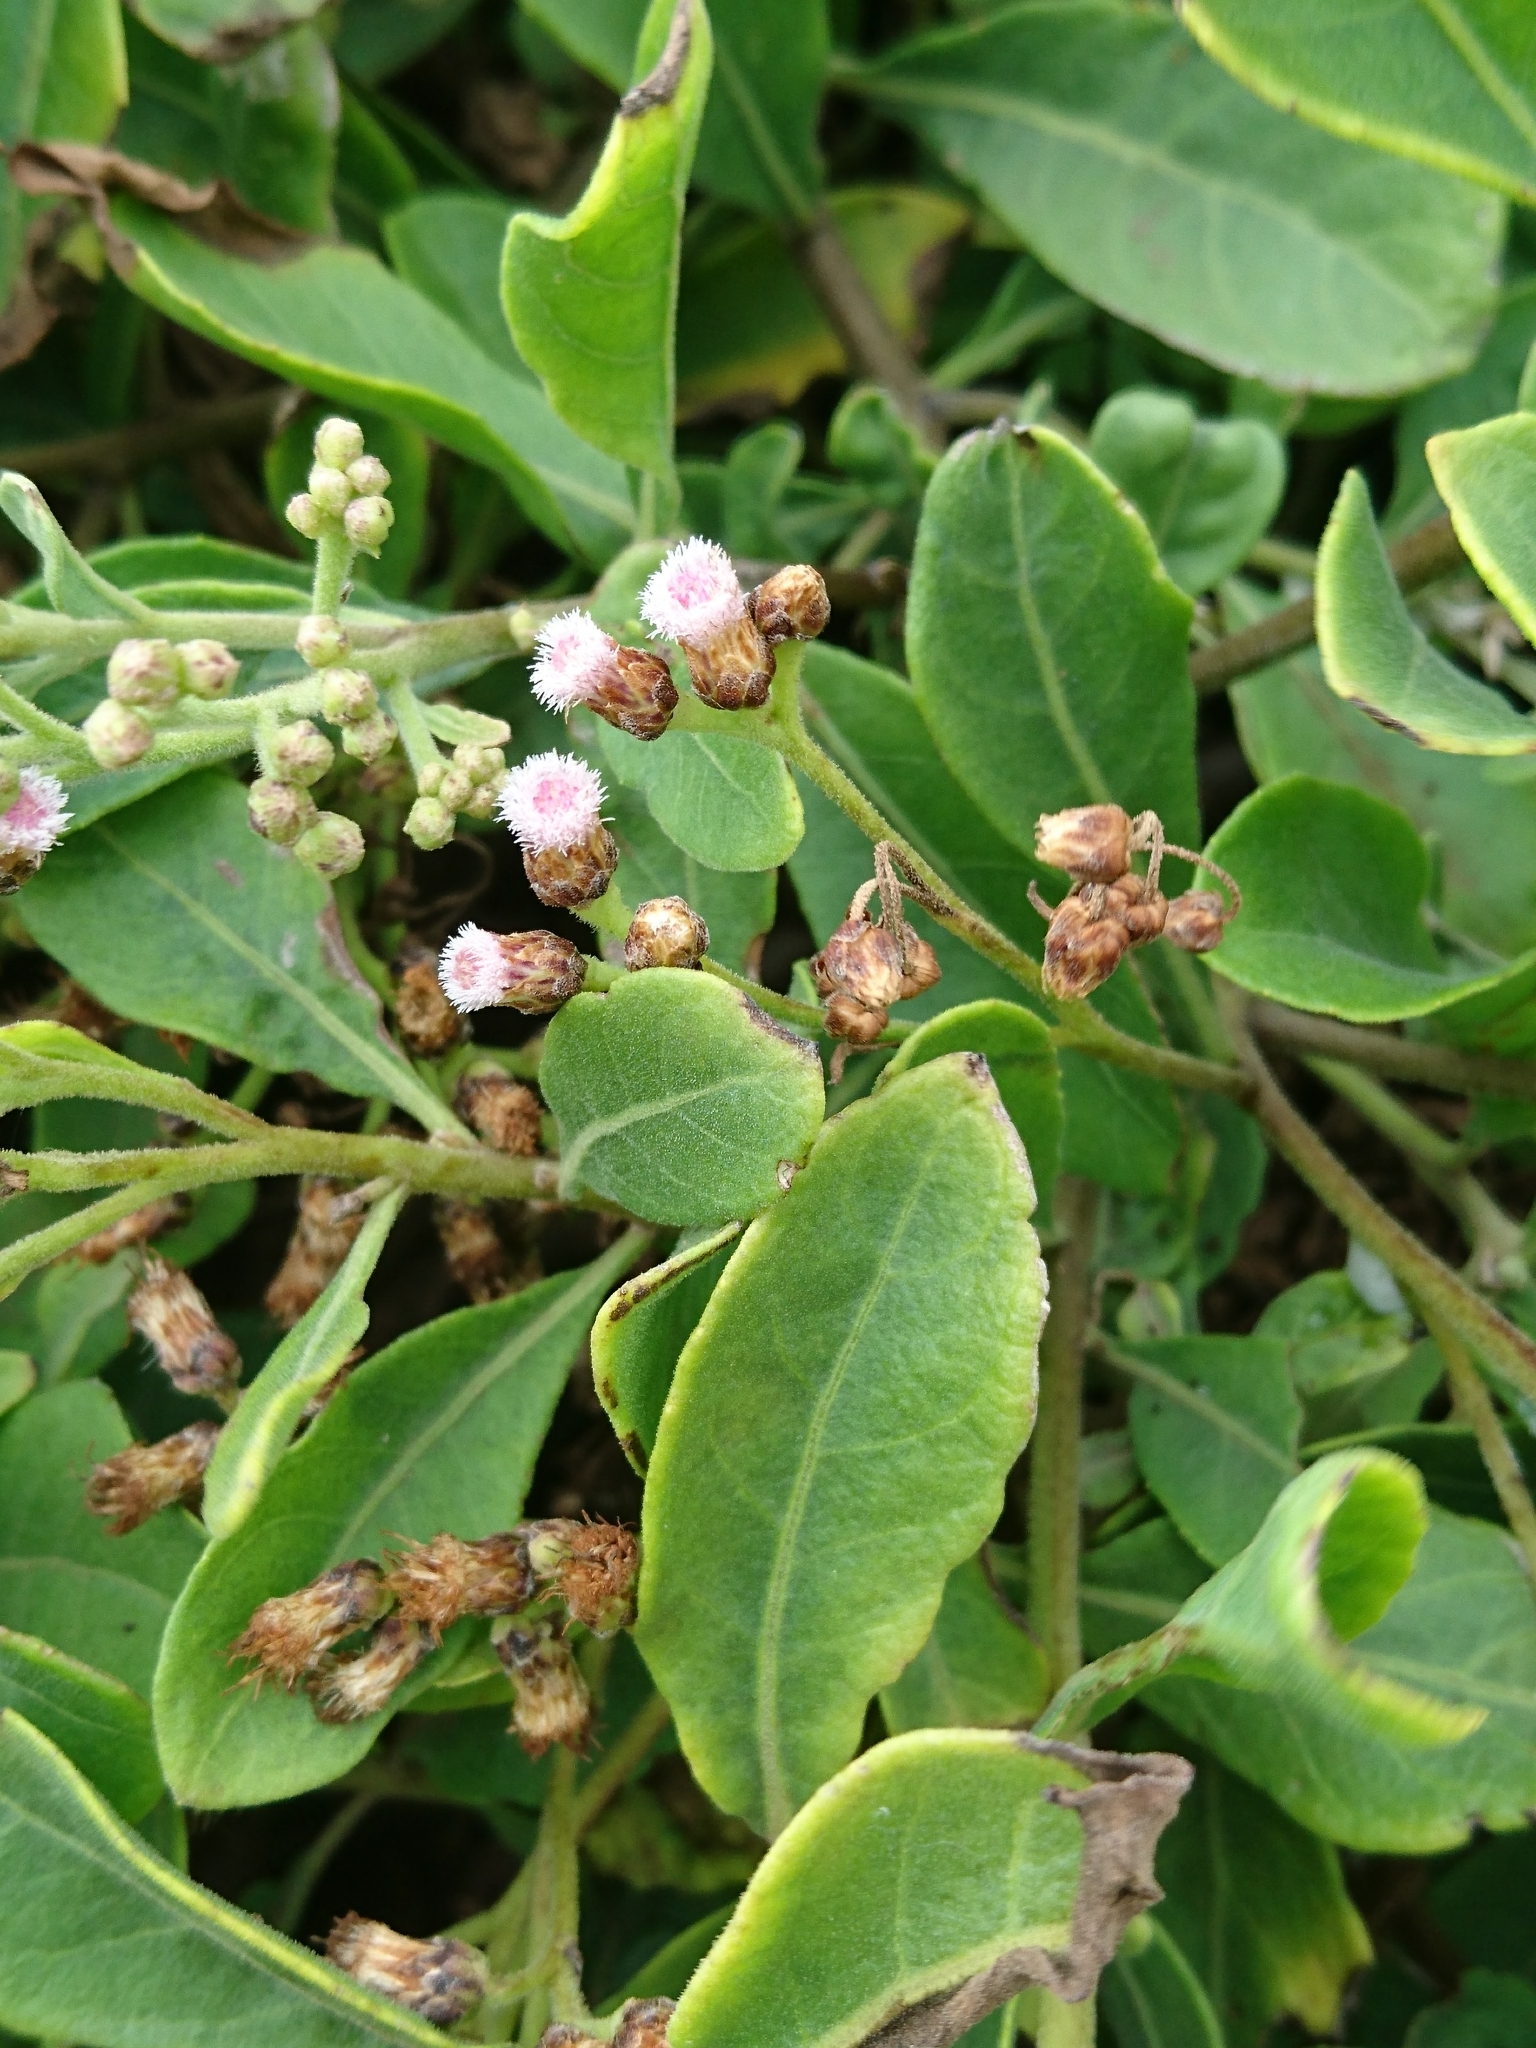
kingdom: Plantae
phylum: Tracheophyta
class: Magnoliopsida
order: Asterales
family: Asteraceae
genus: Pluchea
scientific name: Pluchea indica
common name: Indian fleabane
